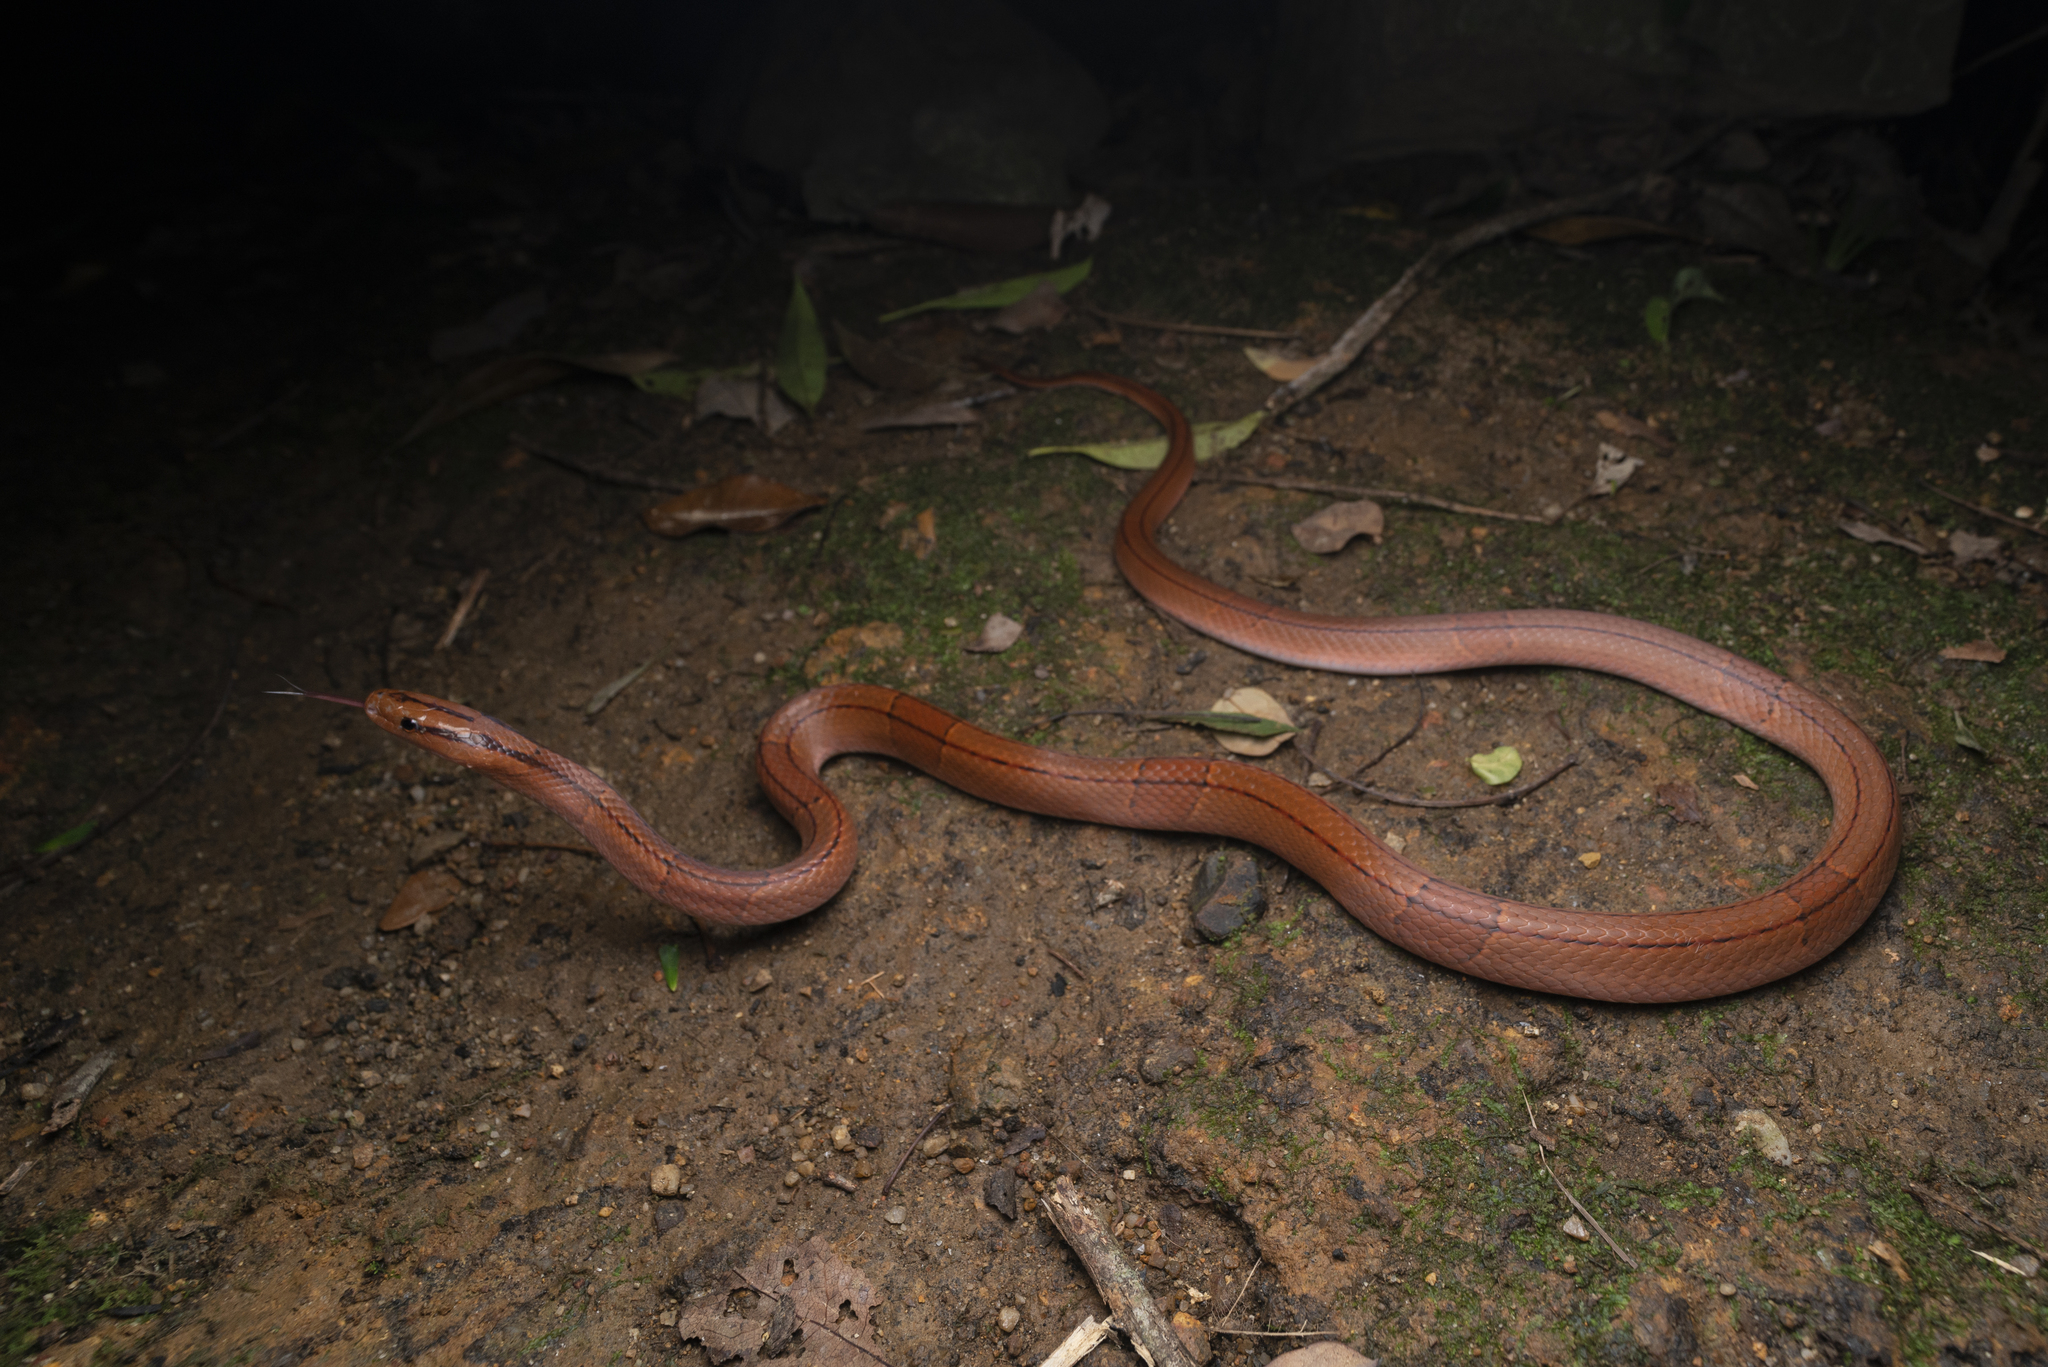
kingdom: Animalia
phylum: Chordata
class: Squamata
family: Colubridae
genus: Oreocryptophis
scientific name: Oreocryptophis porphyraceus
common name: Black-banded trinket snake
